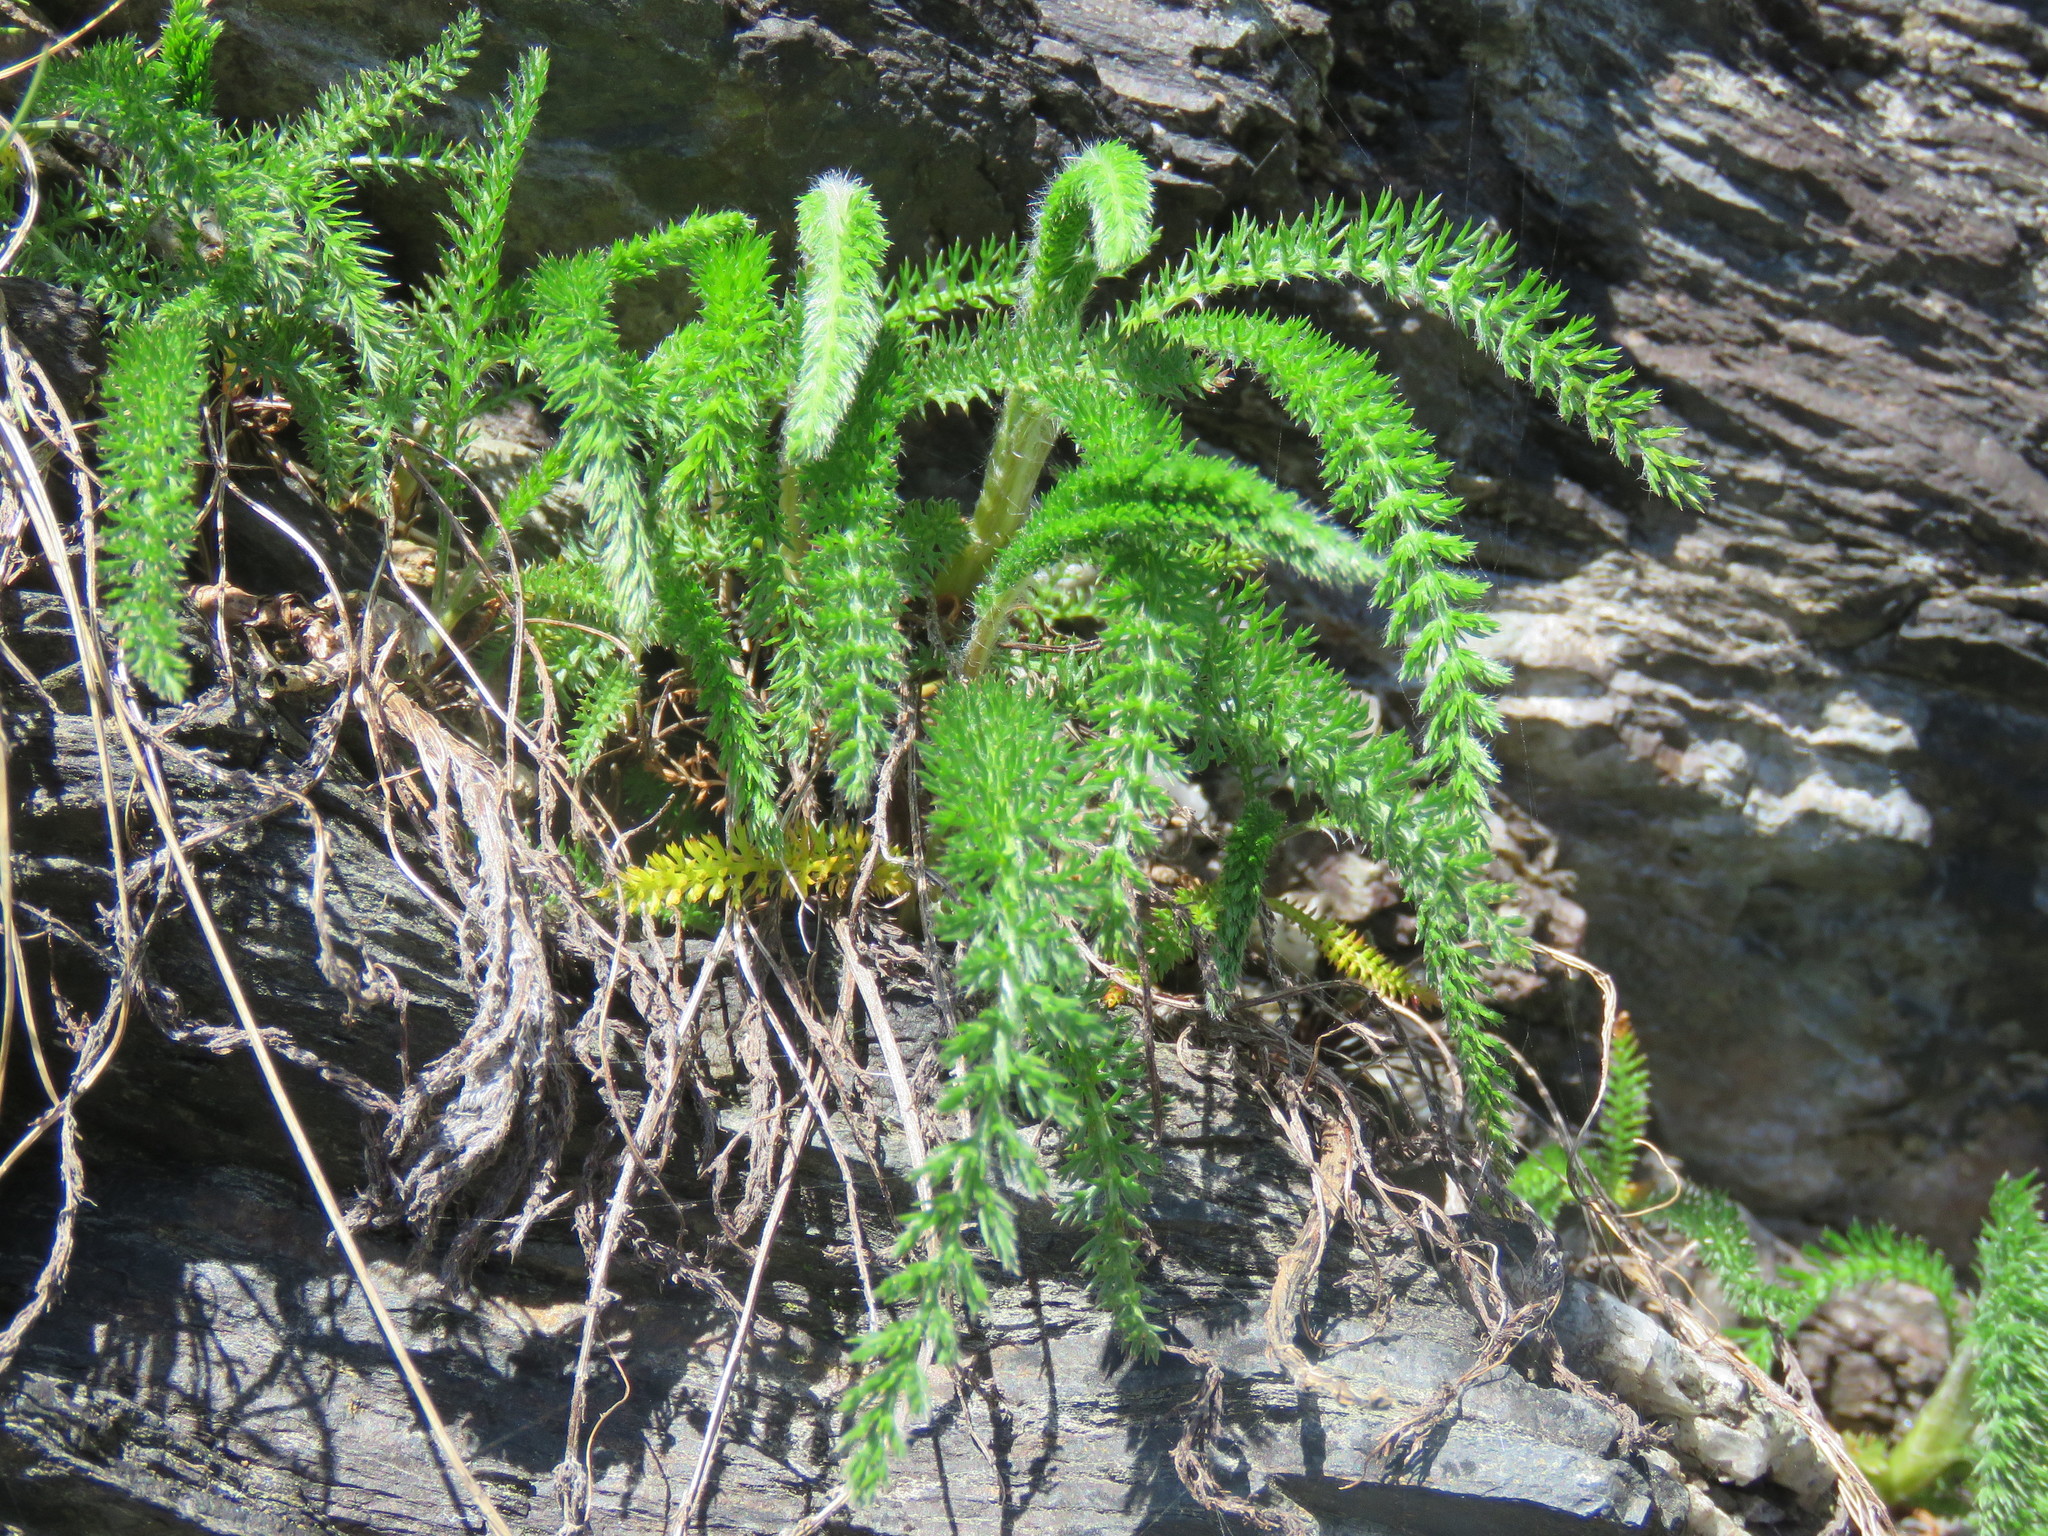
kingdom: Plantae
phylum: Tracheophyta
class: Magnoliopsida
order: Asterales
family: Asteraceae
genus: Achillea
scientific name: Achillea millefolium
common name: Yarrow
